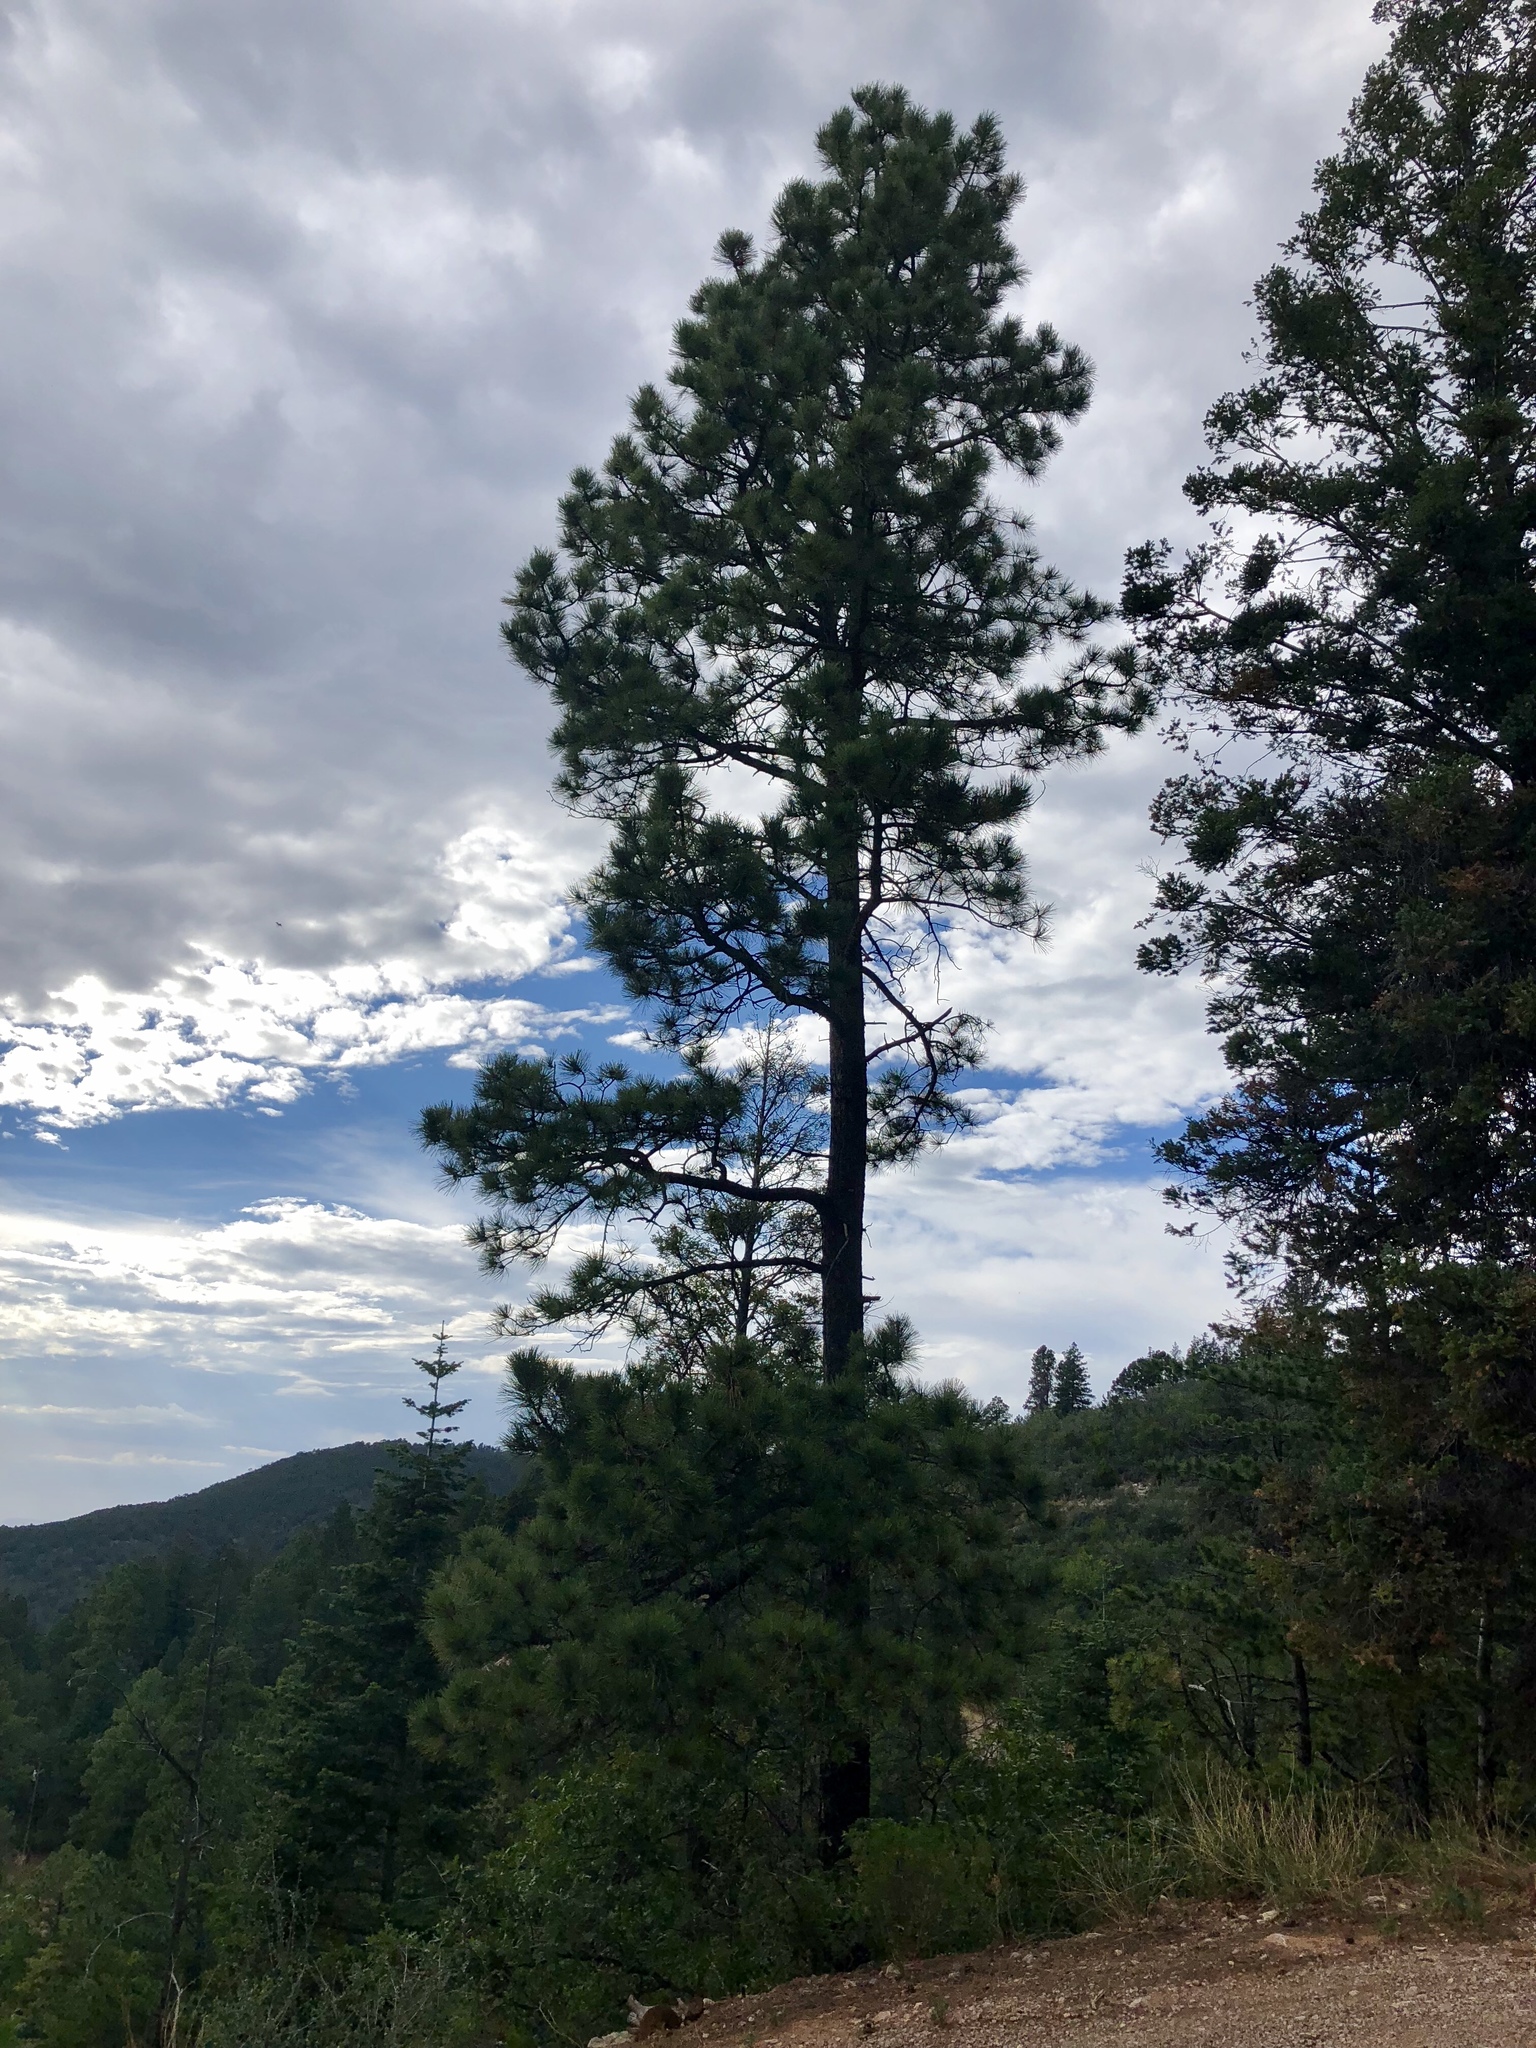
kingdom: Plantae
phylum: Tracheophyta
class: Pinopsida
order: Pinales
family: Pinaceae
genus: Pinus
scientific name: Pinus ponderosa
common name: Western yellow-pine
